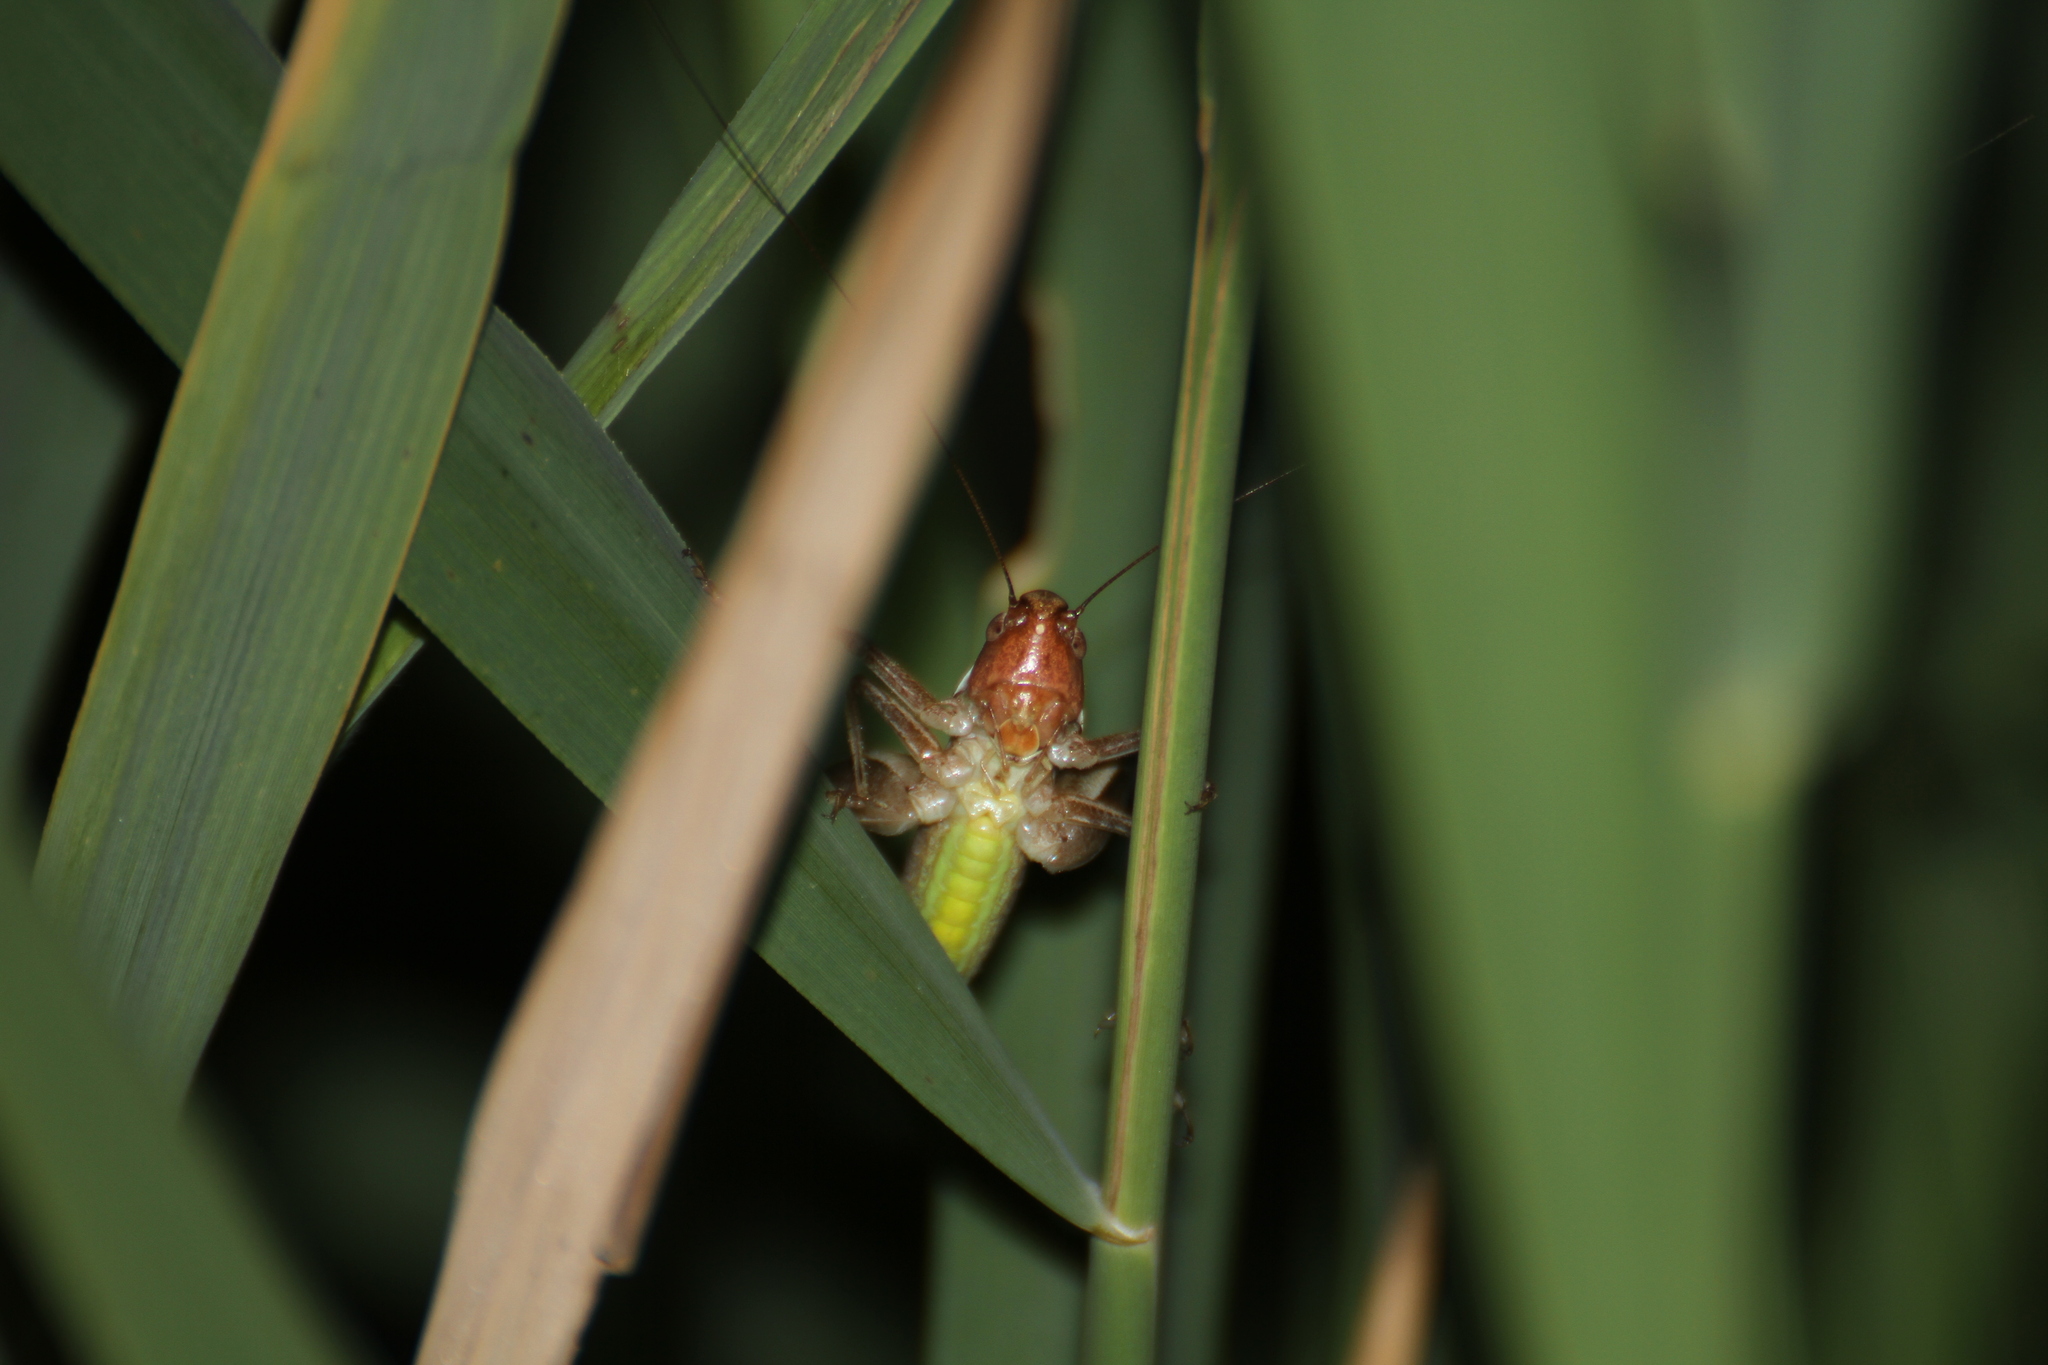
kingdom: Animalia
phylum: Arthropoda
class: Insecta
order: Orthoptera
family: Tettigoniidae
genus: Sepiana
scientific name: Sepiana sepium
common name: Sepia bush-cricket
